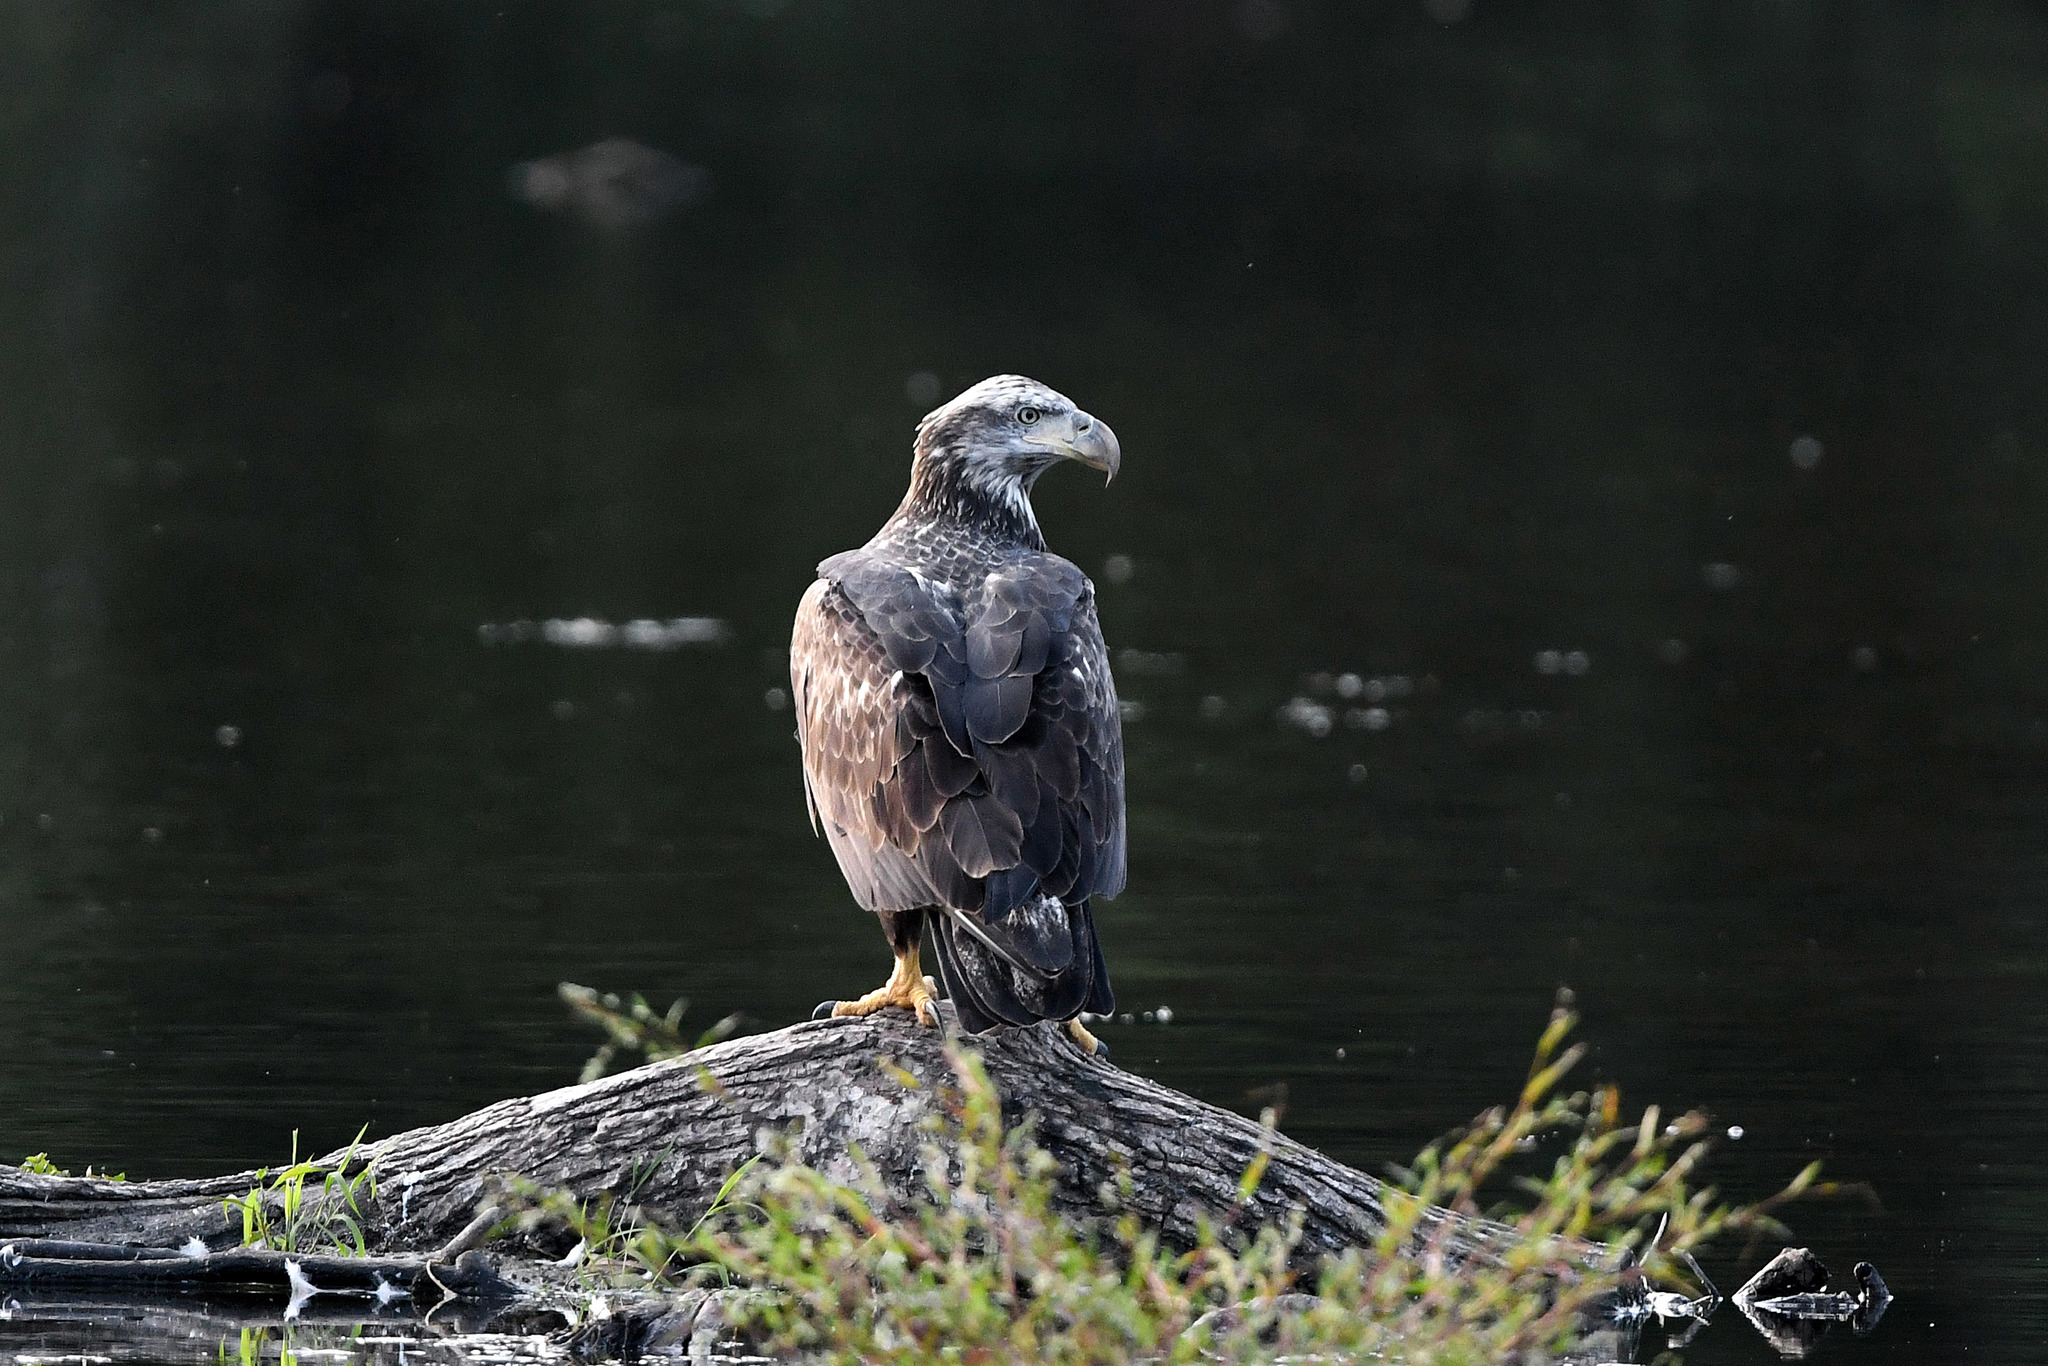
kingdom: Animalia
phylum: Chordata
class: Aves
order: Accipitriformes
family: Accipitridae
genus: Haliaeetus
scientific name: Haliaeetus leucocephalus
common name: Bald eagle
